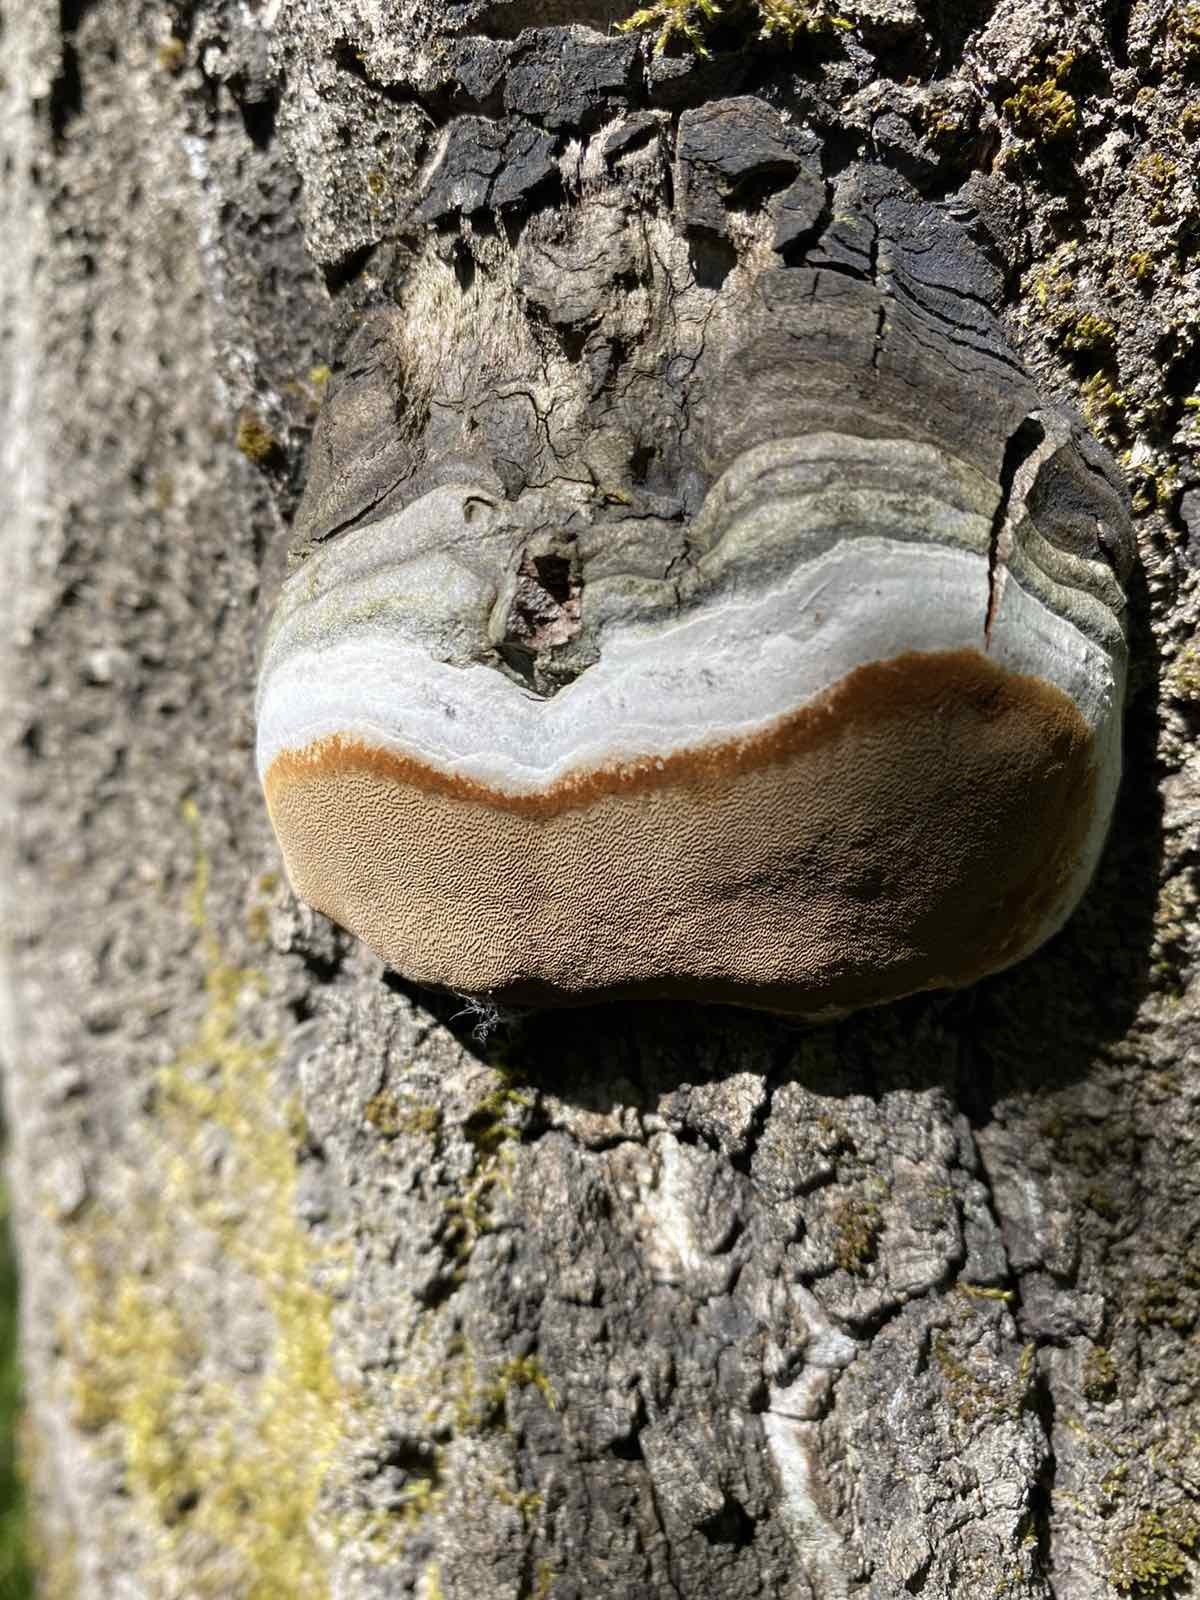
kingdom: Fungi
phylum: Basidiomycota
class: Agaricomycetes
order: Hymenochaetales
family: Hymenochaetaceae
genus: Phellinus
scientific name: Phellinus tremulae
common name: Aspen bracket
